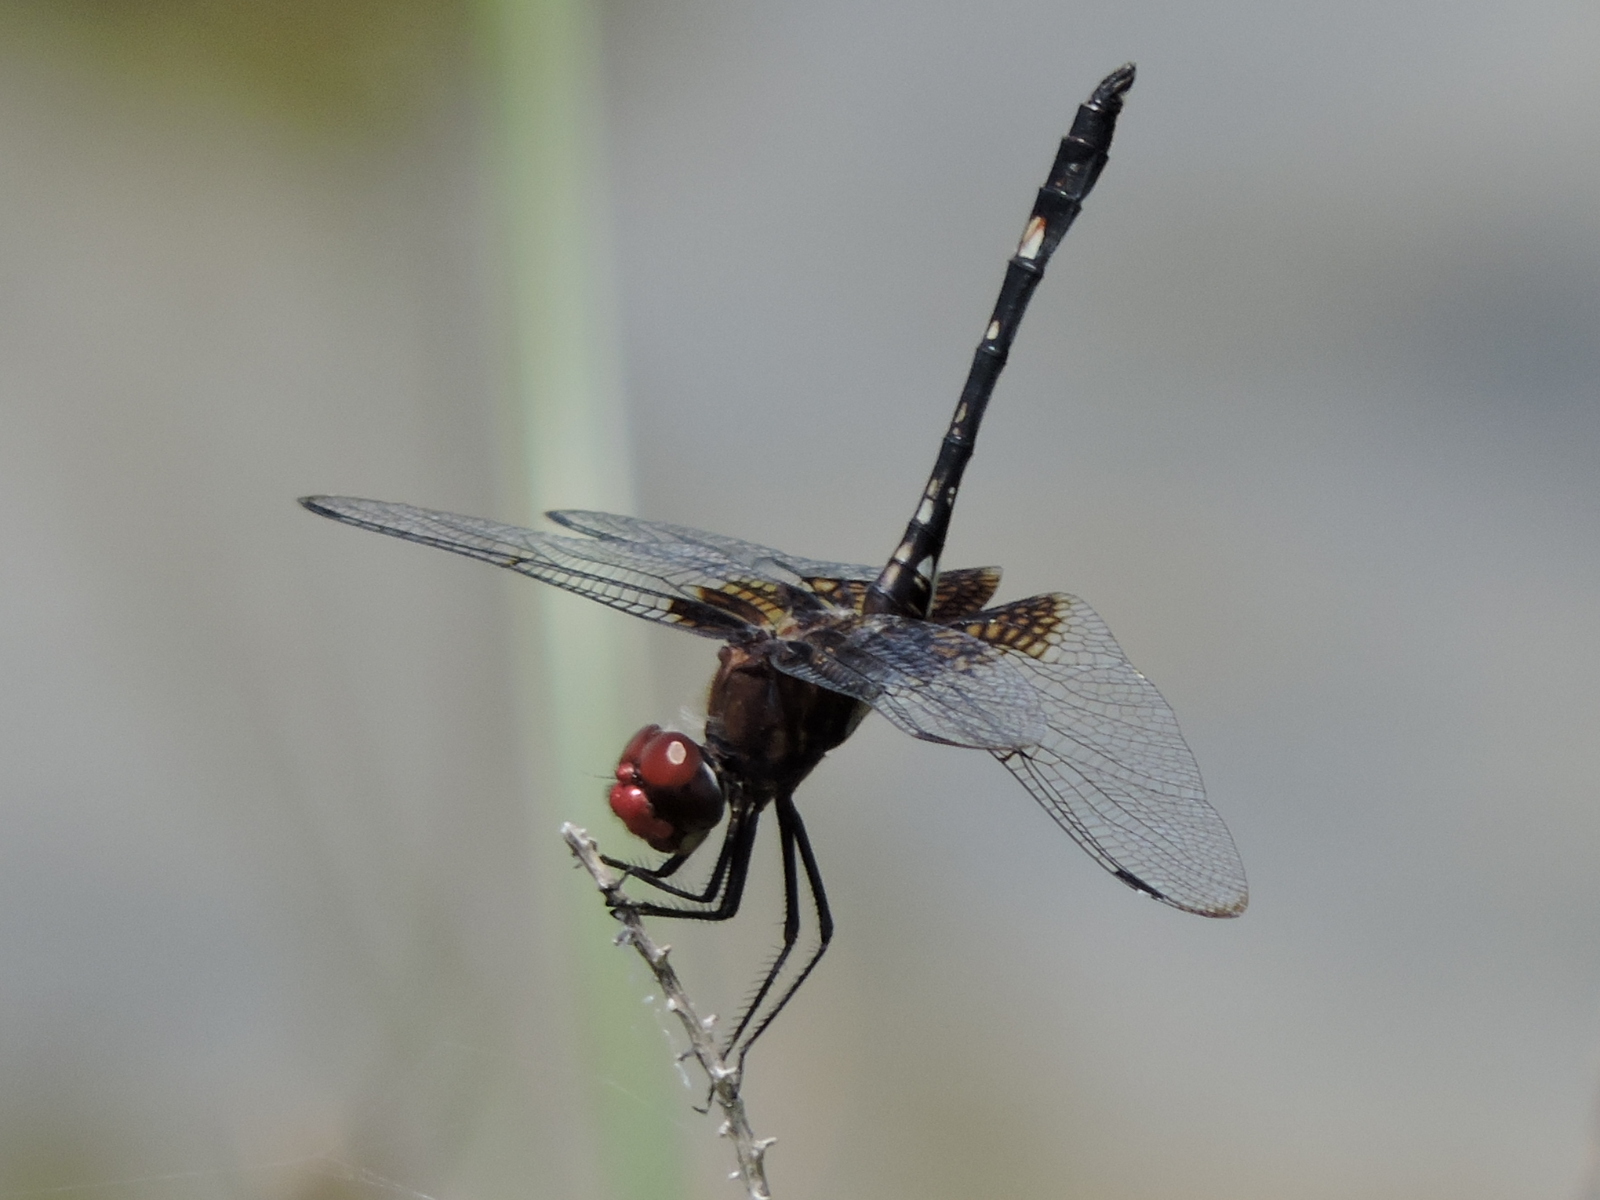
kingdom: Animalia
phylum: Arthropoda
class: Insecta
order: Odonata
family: Libellulidae
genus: Dythemis
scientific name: Dythemis fugax
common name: Checkered setwing
